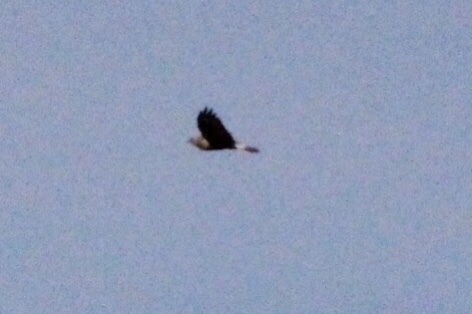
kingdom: Animalia
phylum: Chordata
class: Aves
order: Accipitriformes
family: Accipitridae
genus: Buteo
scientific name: Buteo lagopus
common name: Rough-legged buzzard
